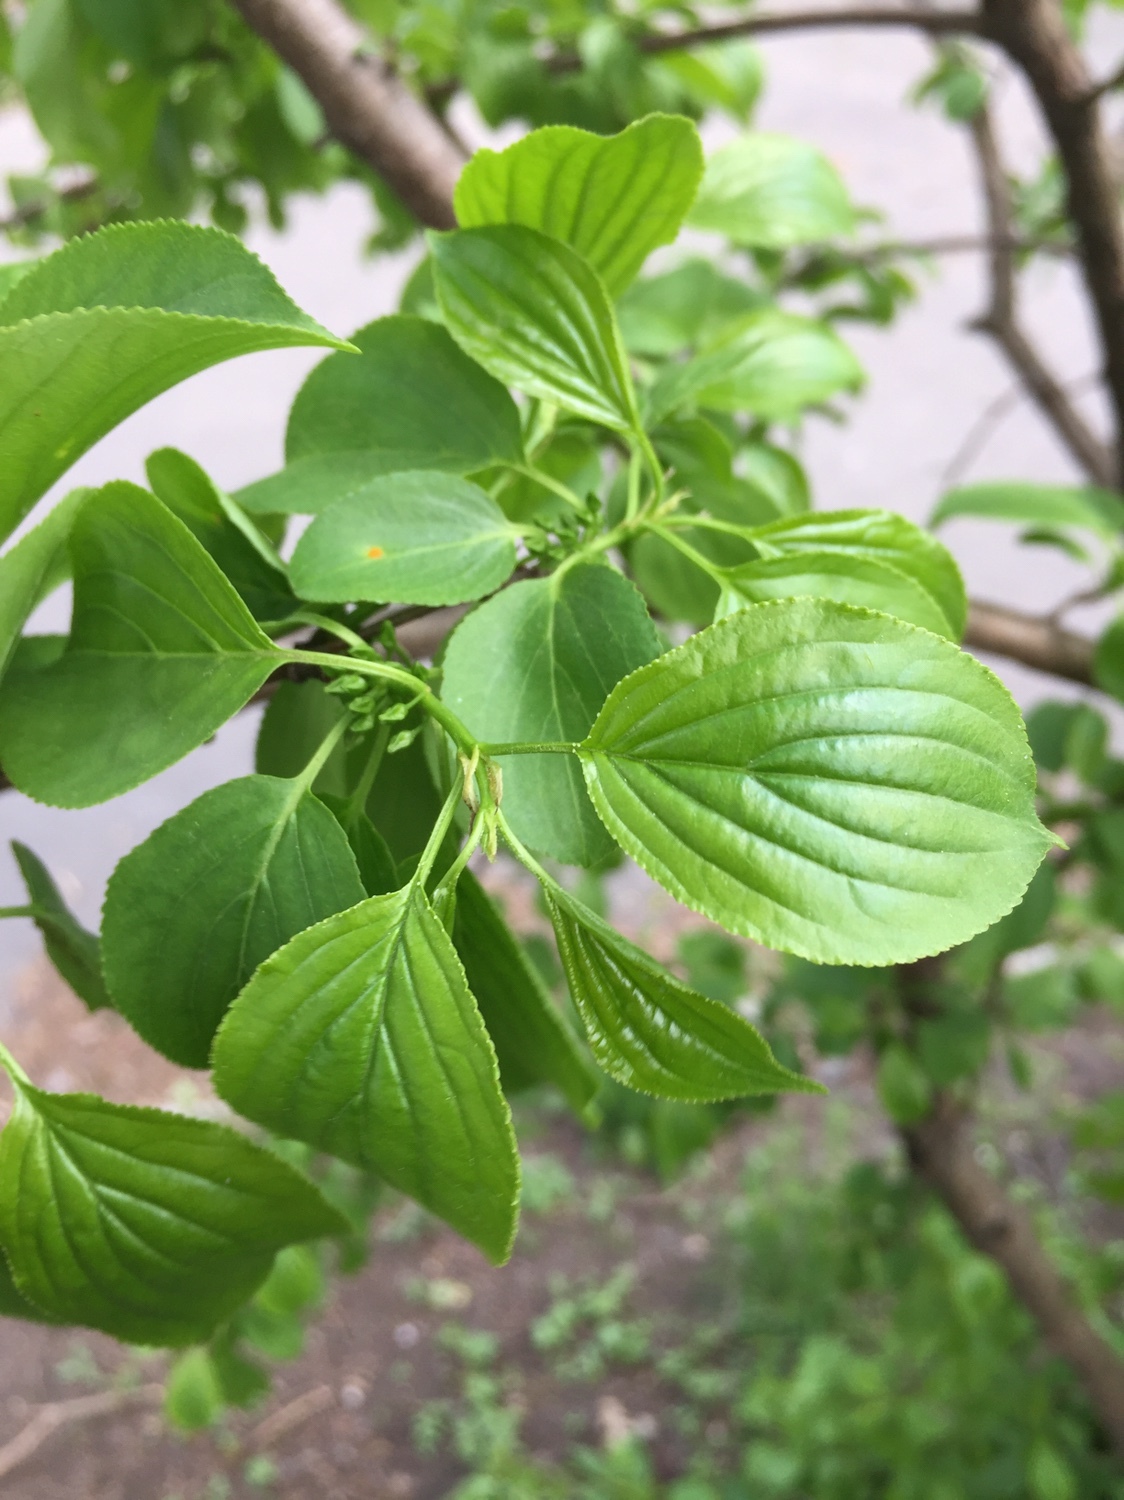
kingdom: Plantae
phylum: Tracheophyta
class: Magnoliopsida
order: Rosales
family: Rhamnaceae
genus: Rhamnus
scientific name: Rhamnus cathartica
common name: Common buckthorn
